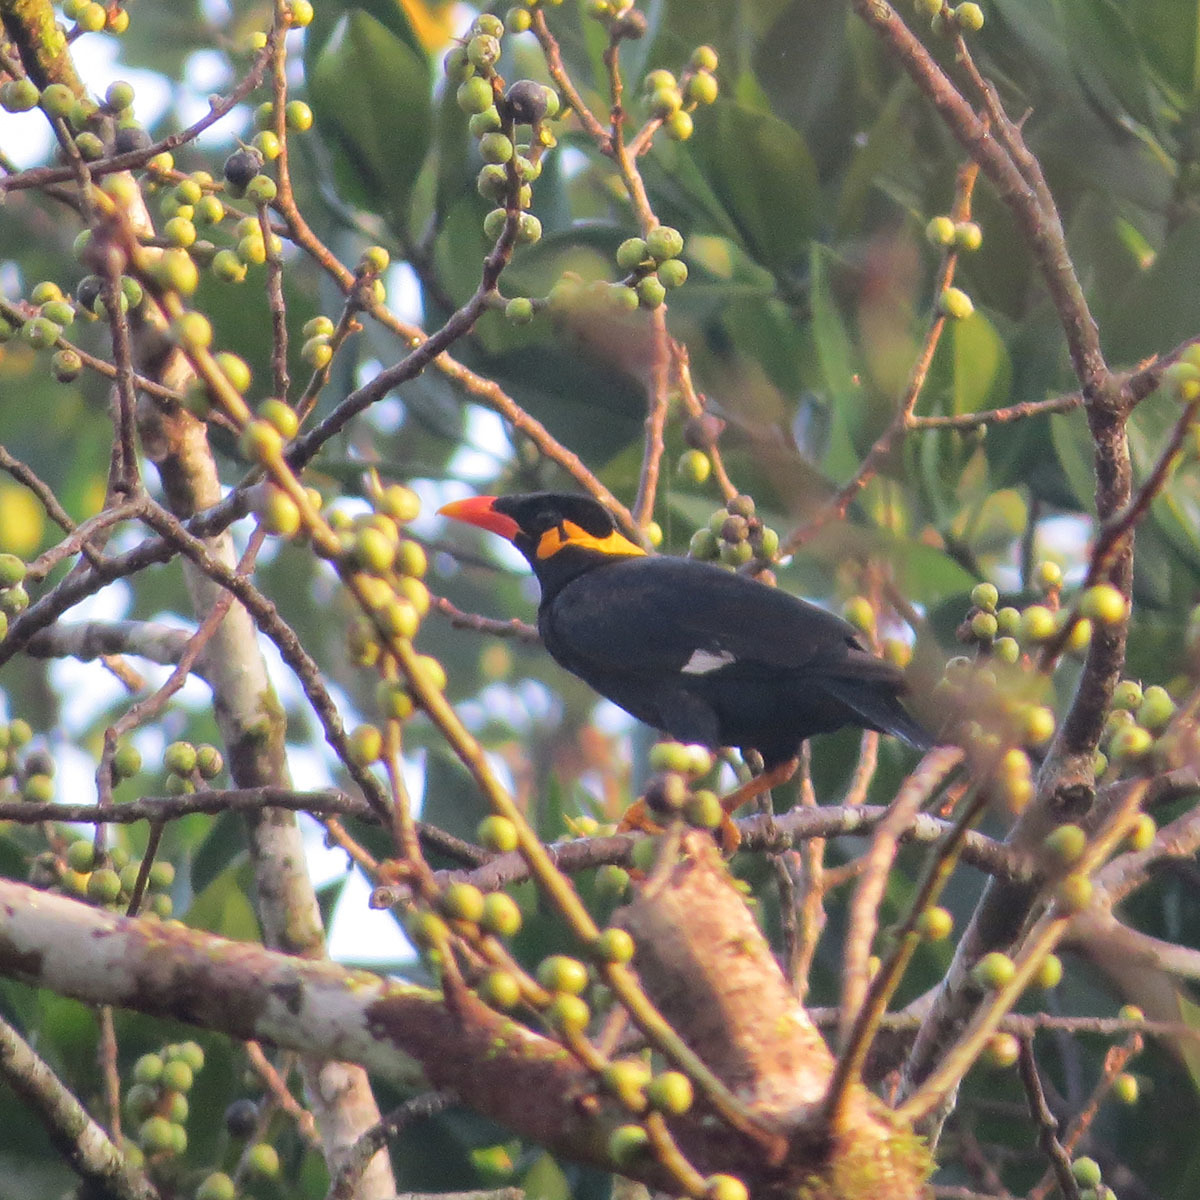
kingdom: Animalia
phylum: Chordata
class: Aves
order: Passeriformes
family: Sturnidae
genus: Gracula
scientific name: Gracula religiosa
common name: Common hill myna
